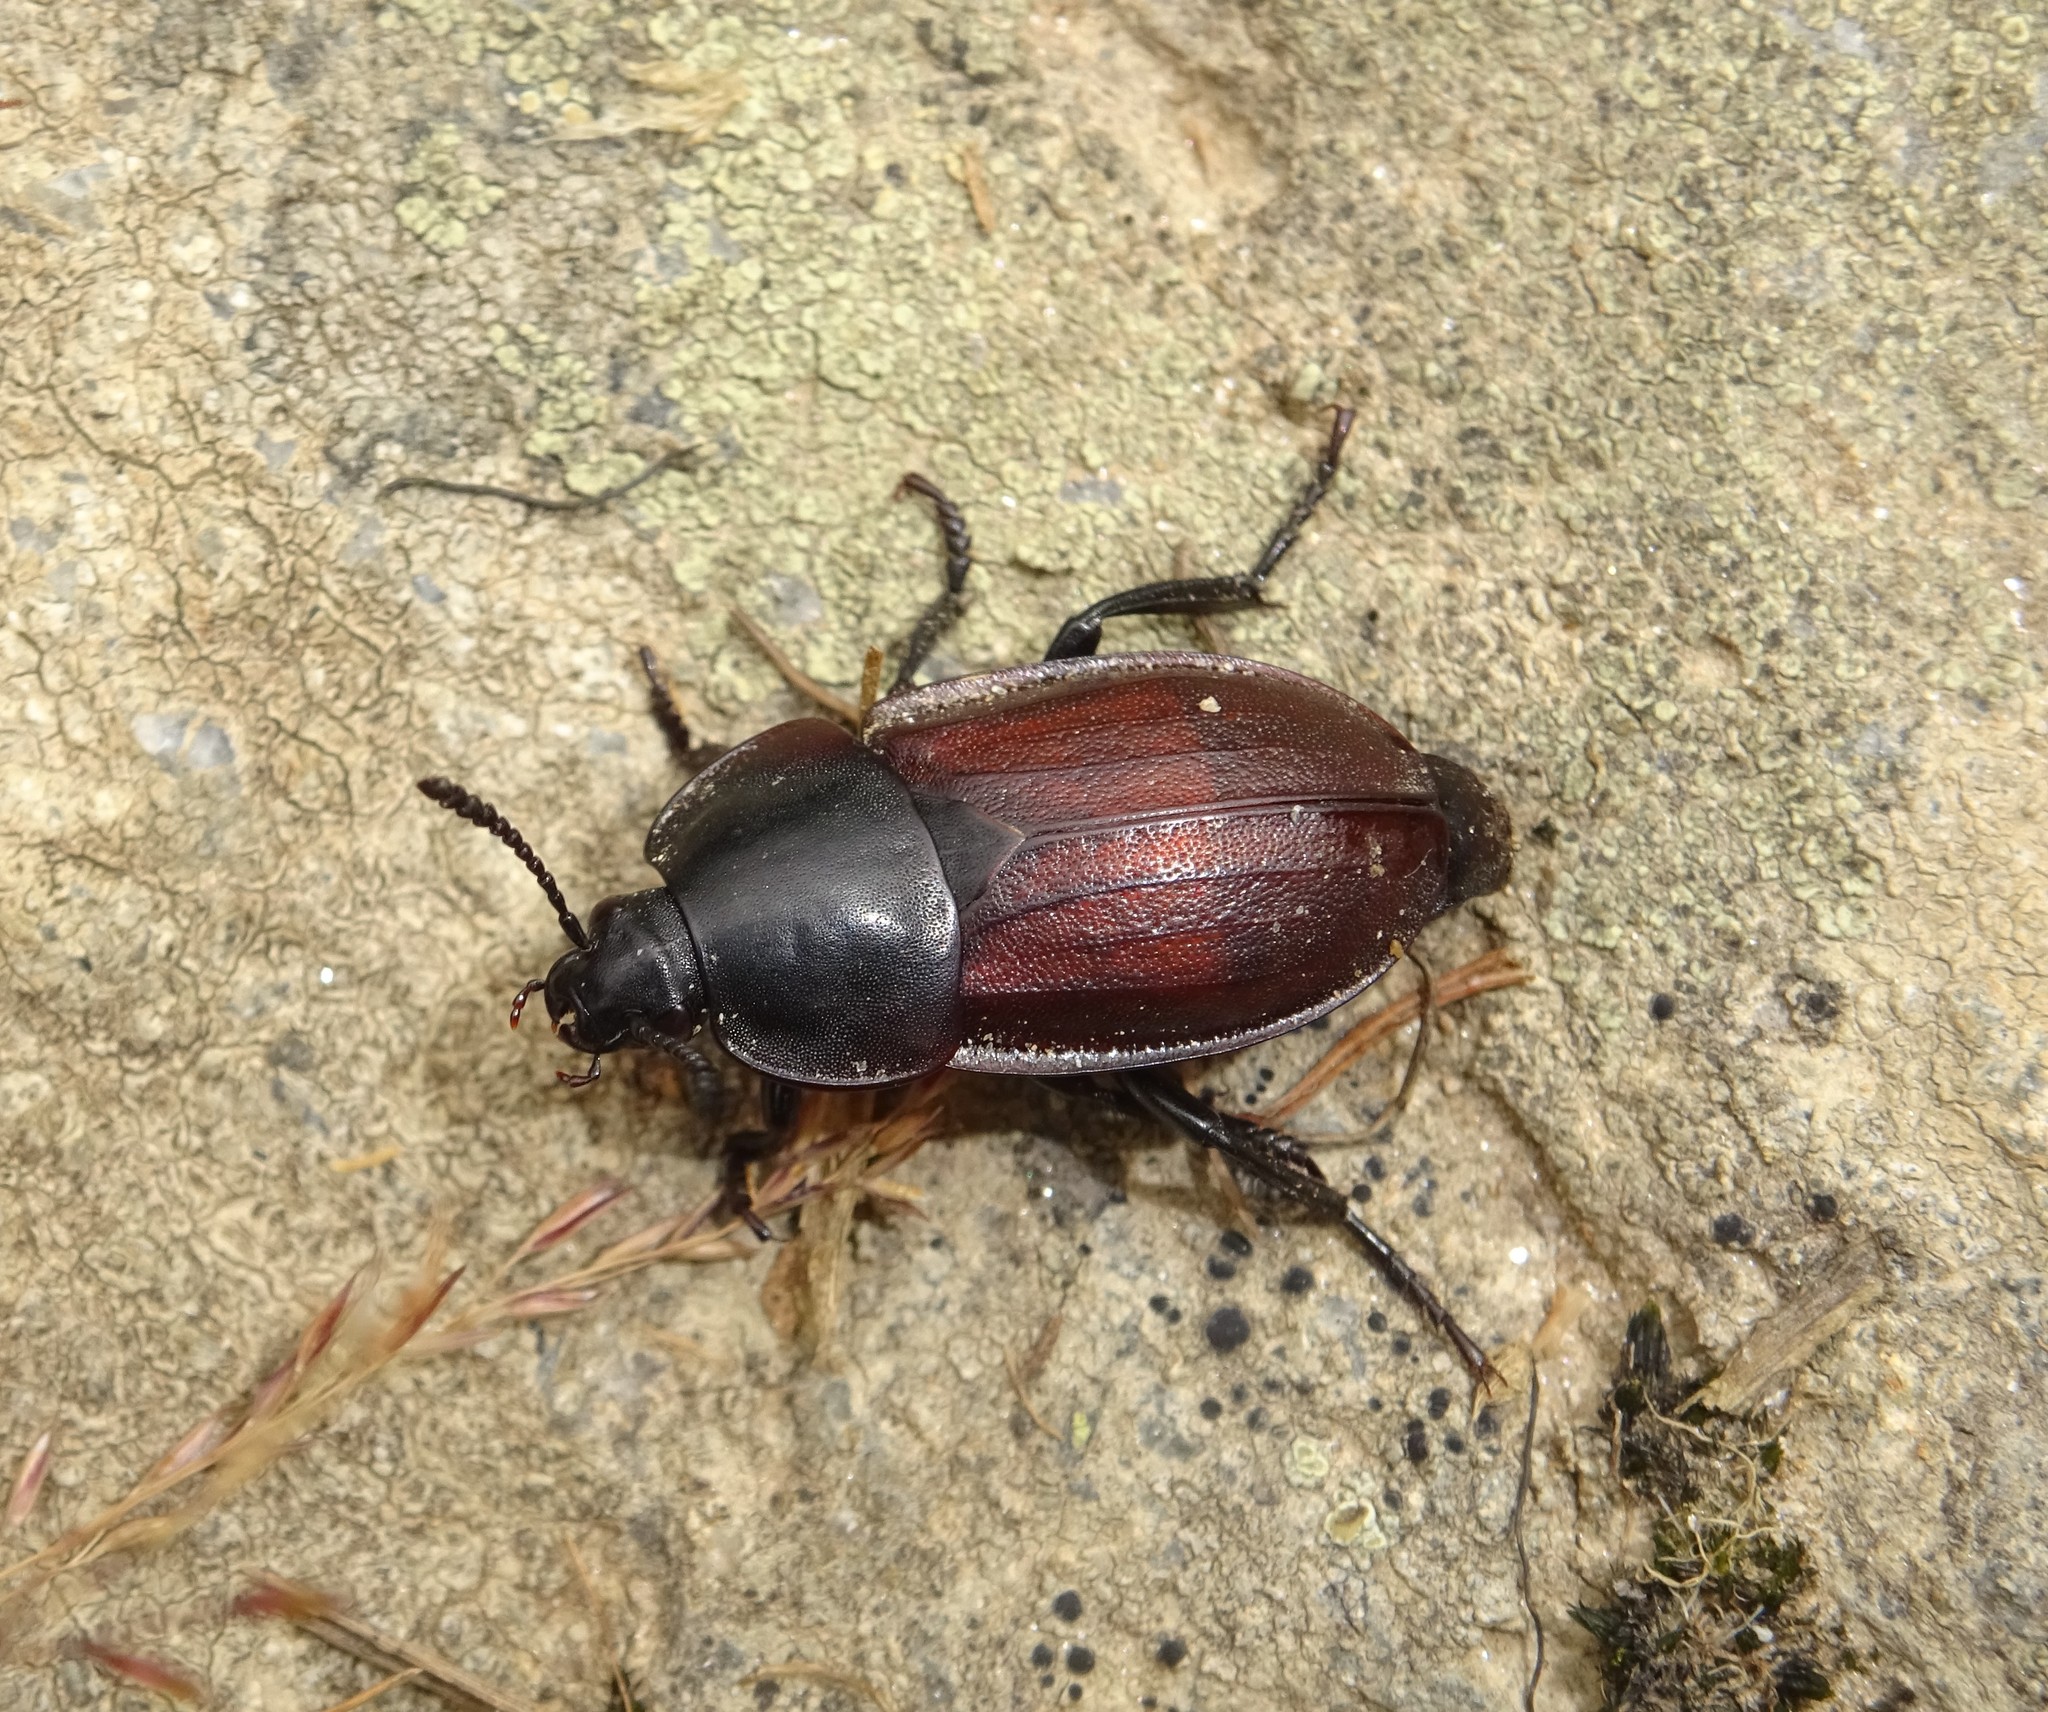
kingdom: Animalia
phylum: Arthropoda
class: Insecta
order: Coleoptera
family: Staphylinidae
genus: Silpha
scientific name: Silpha tyrolensis
